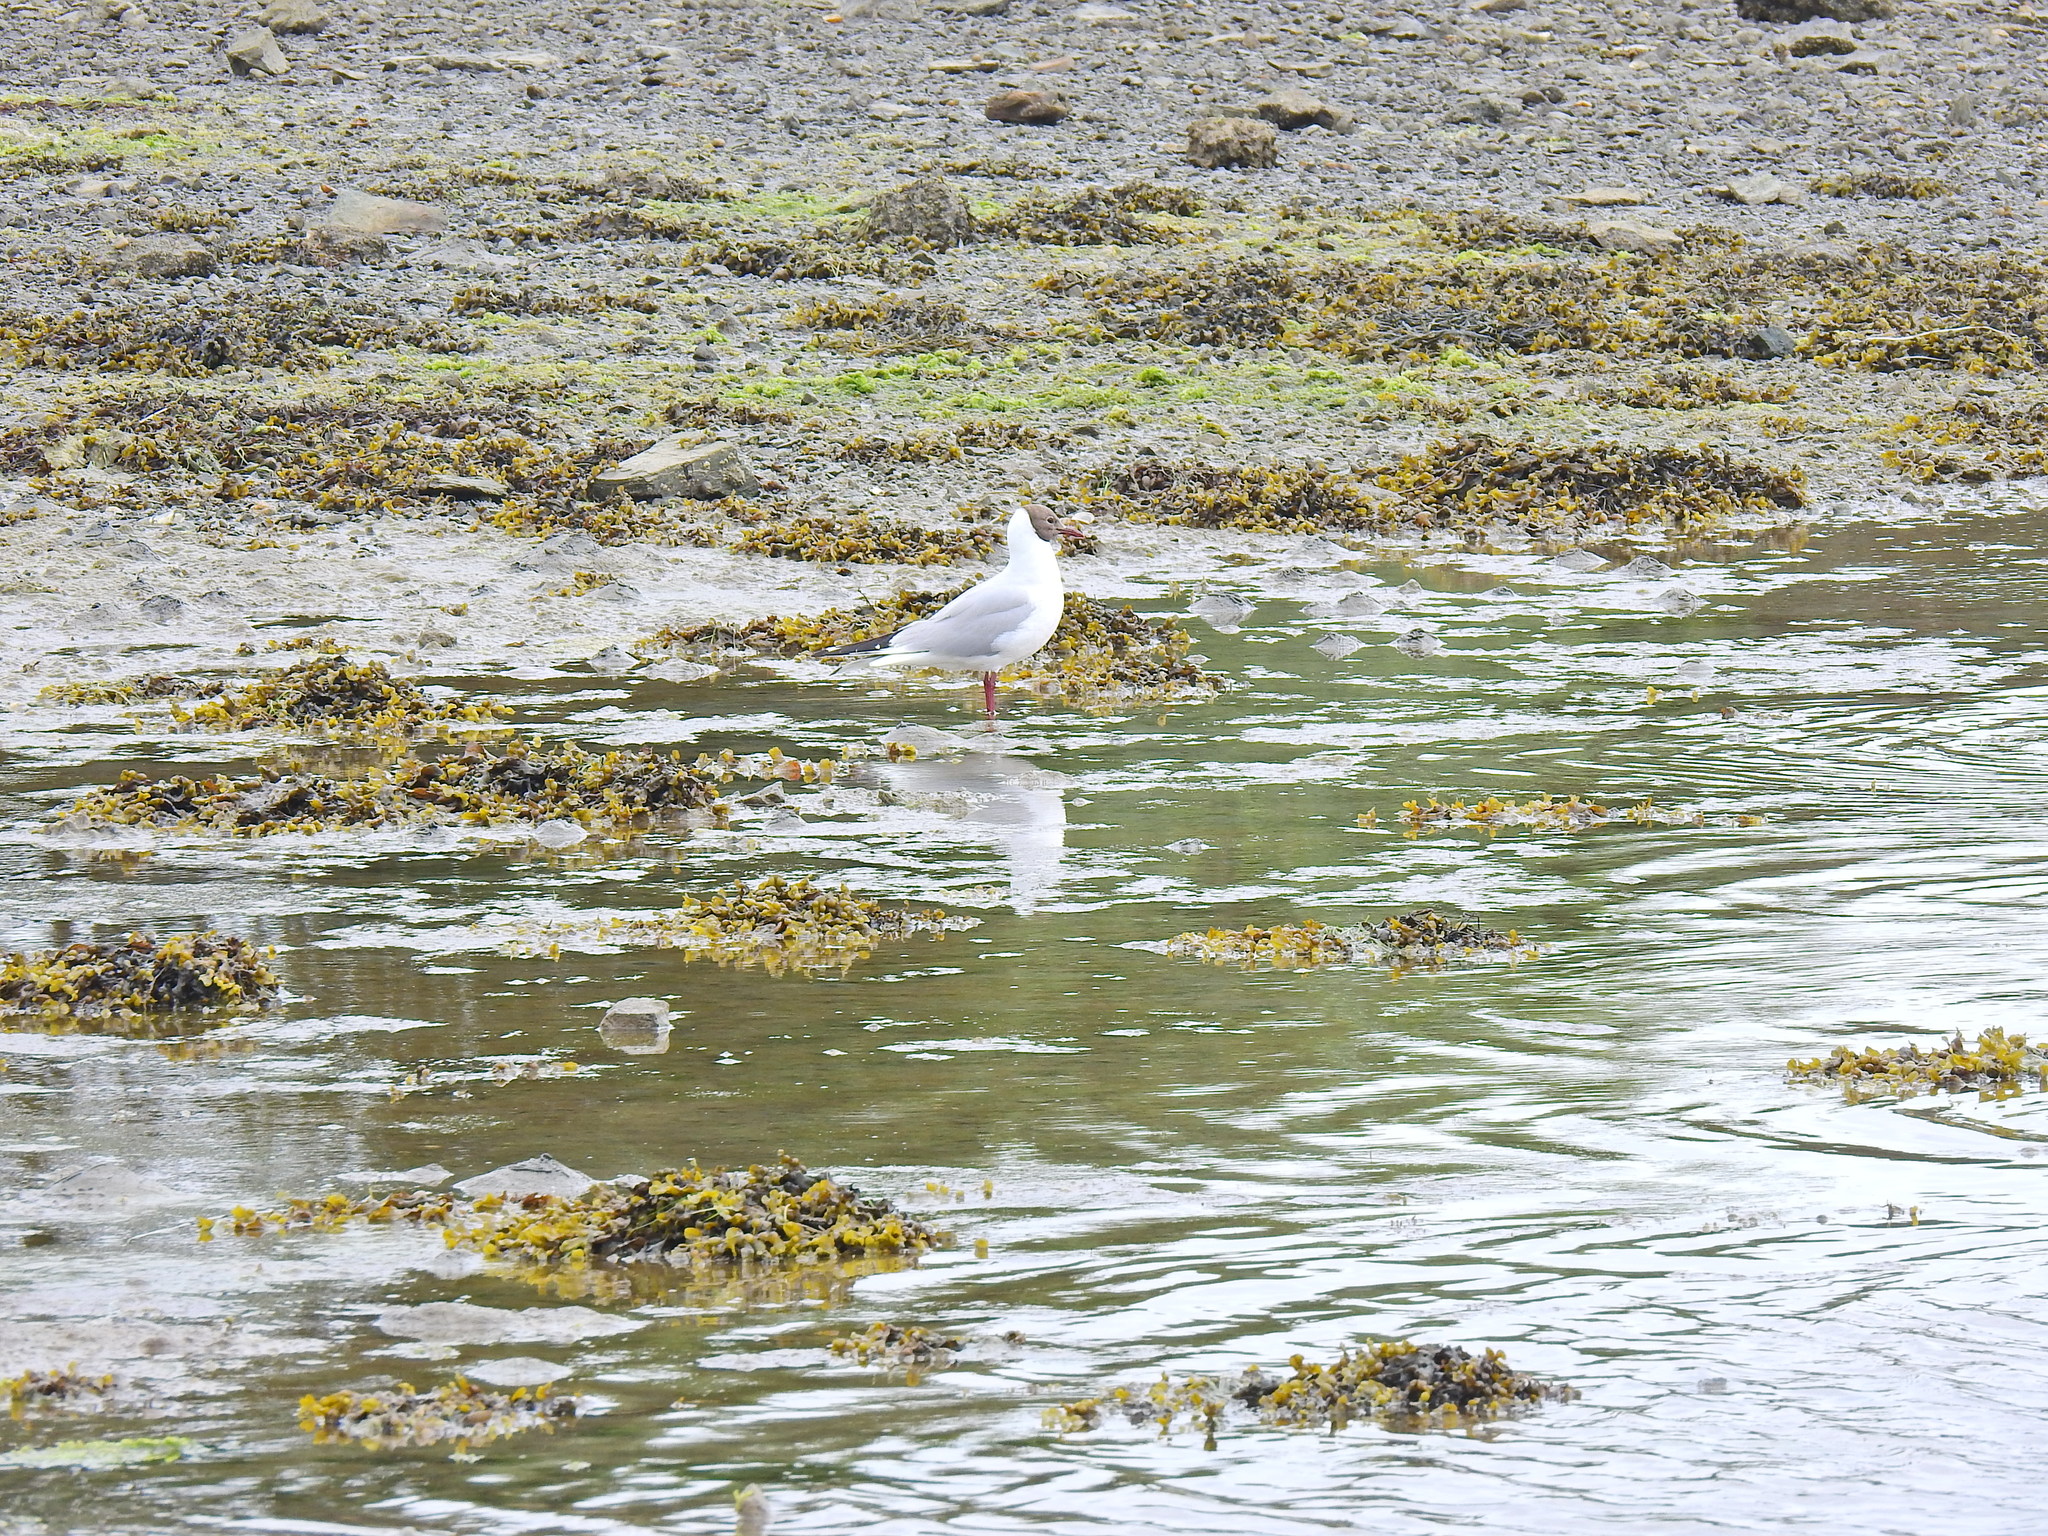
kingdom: Animalia
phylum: Chordata
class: Aves
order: Charadriiformes
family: Laridae
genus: Chroicocephalus
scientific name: Chroicocephalus ridibundus
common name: Black-headed gull
